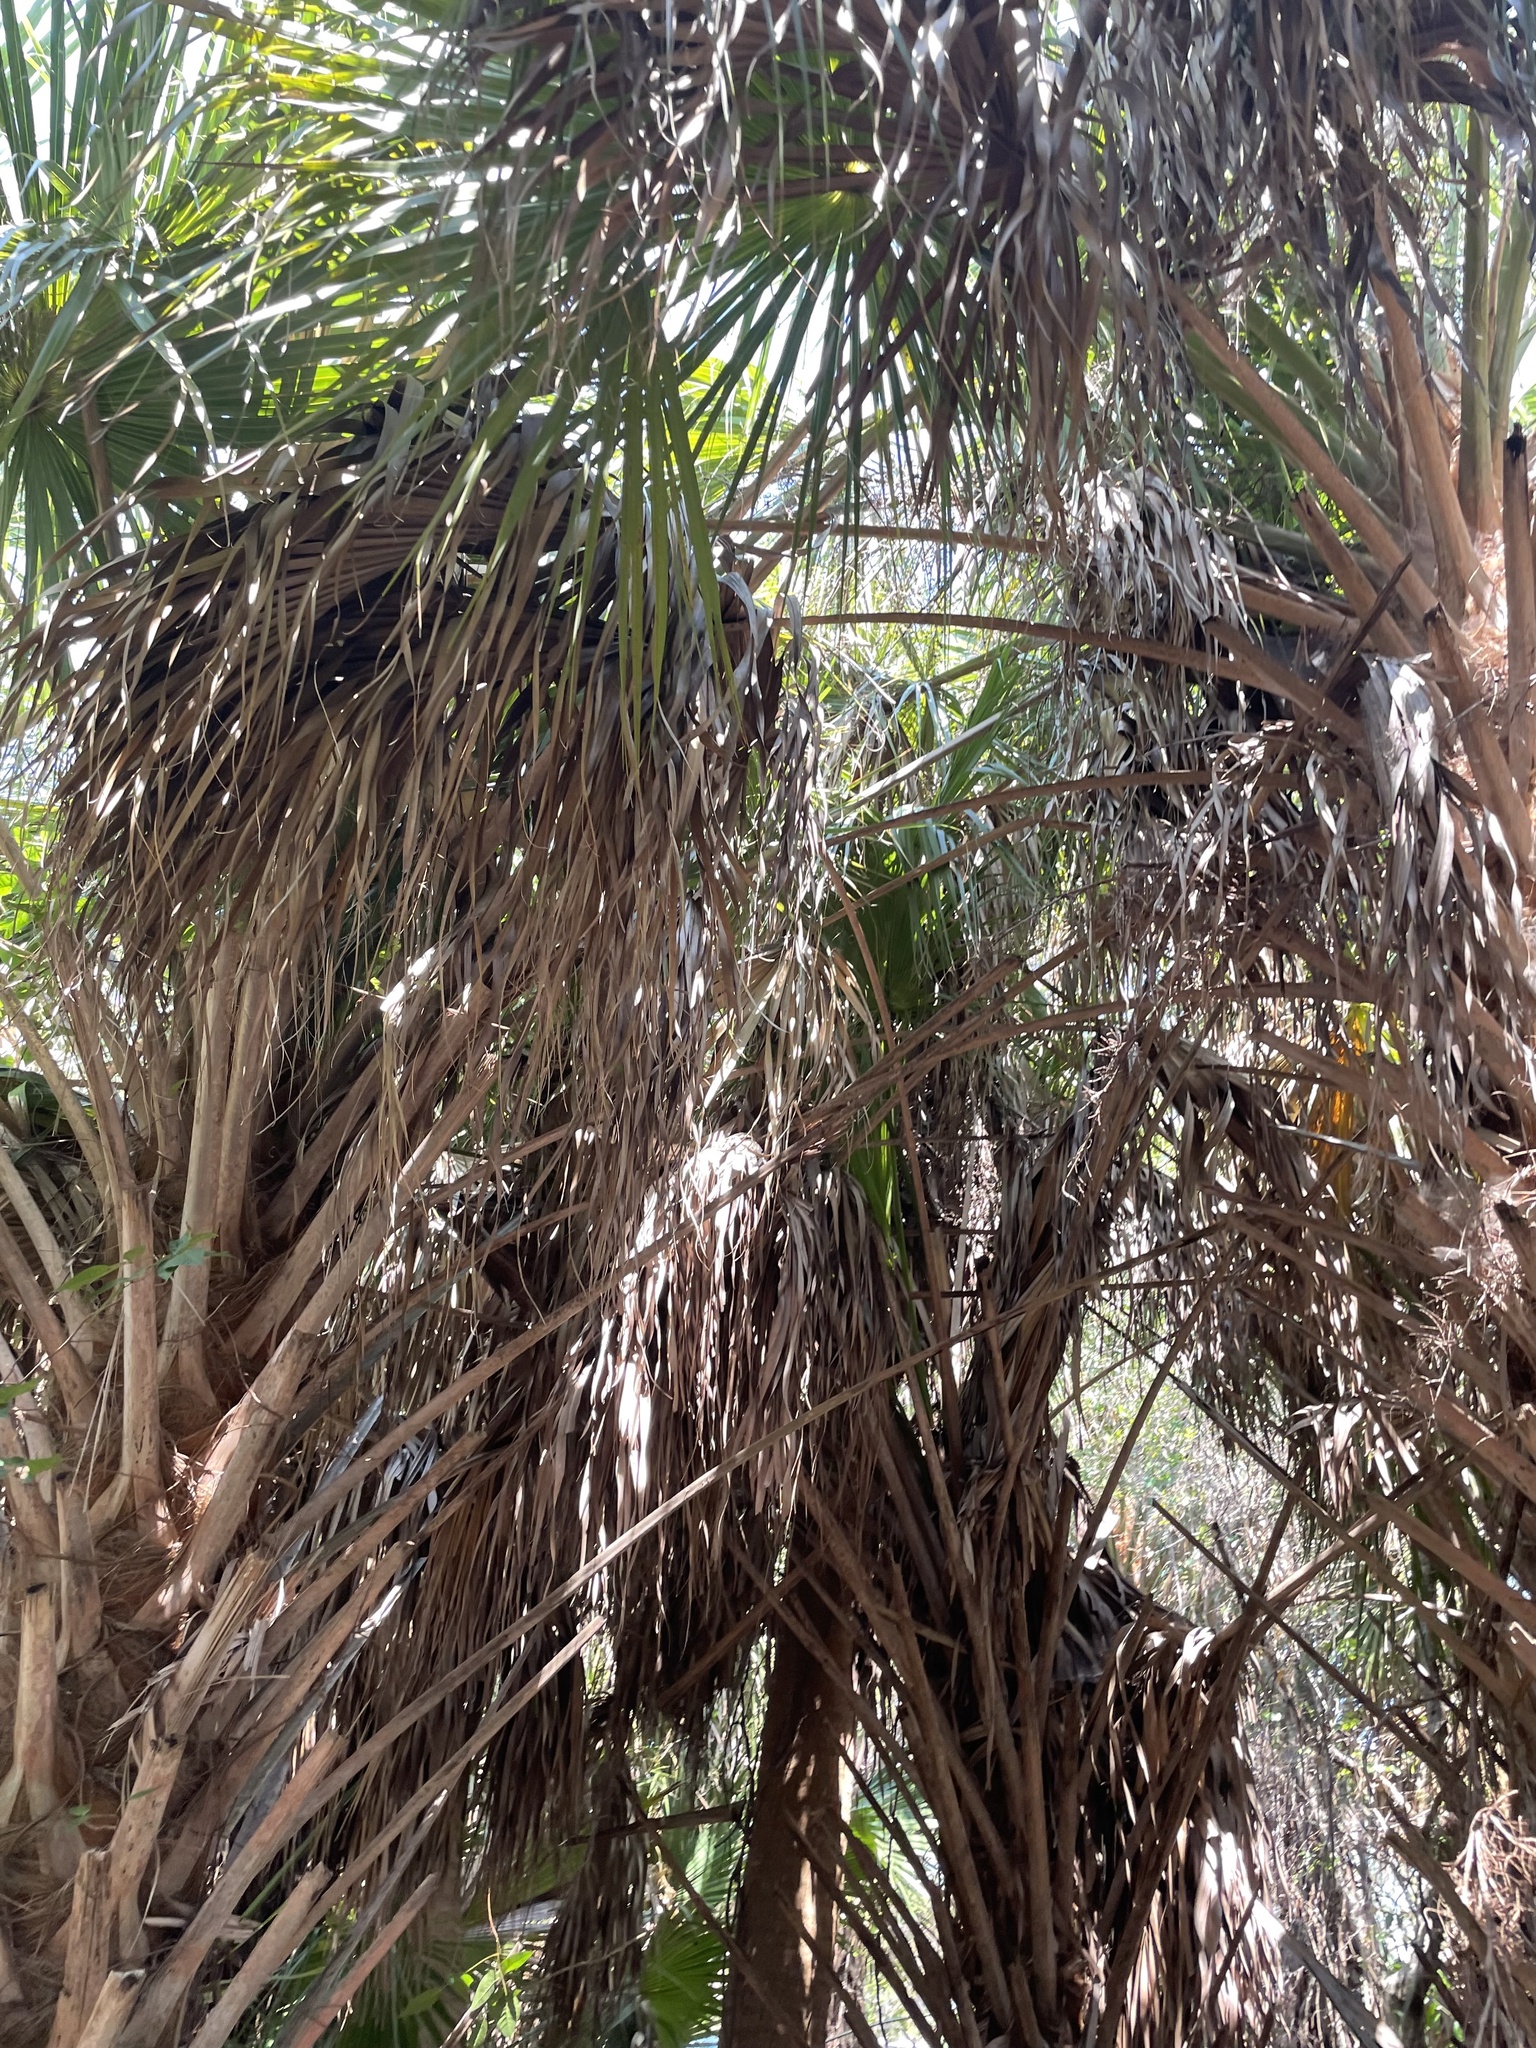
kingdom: Plantae
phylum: Tracheophyta
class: Liliopsida
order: Arecales
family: Arecaceae
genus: Sabal
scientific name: Sabal palmetto
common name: Blue palmetto
